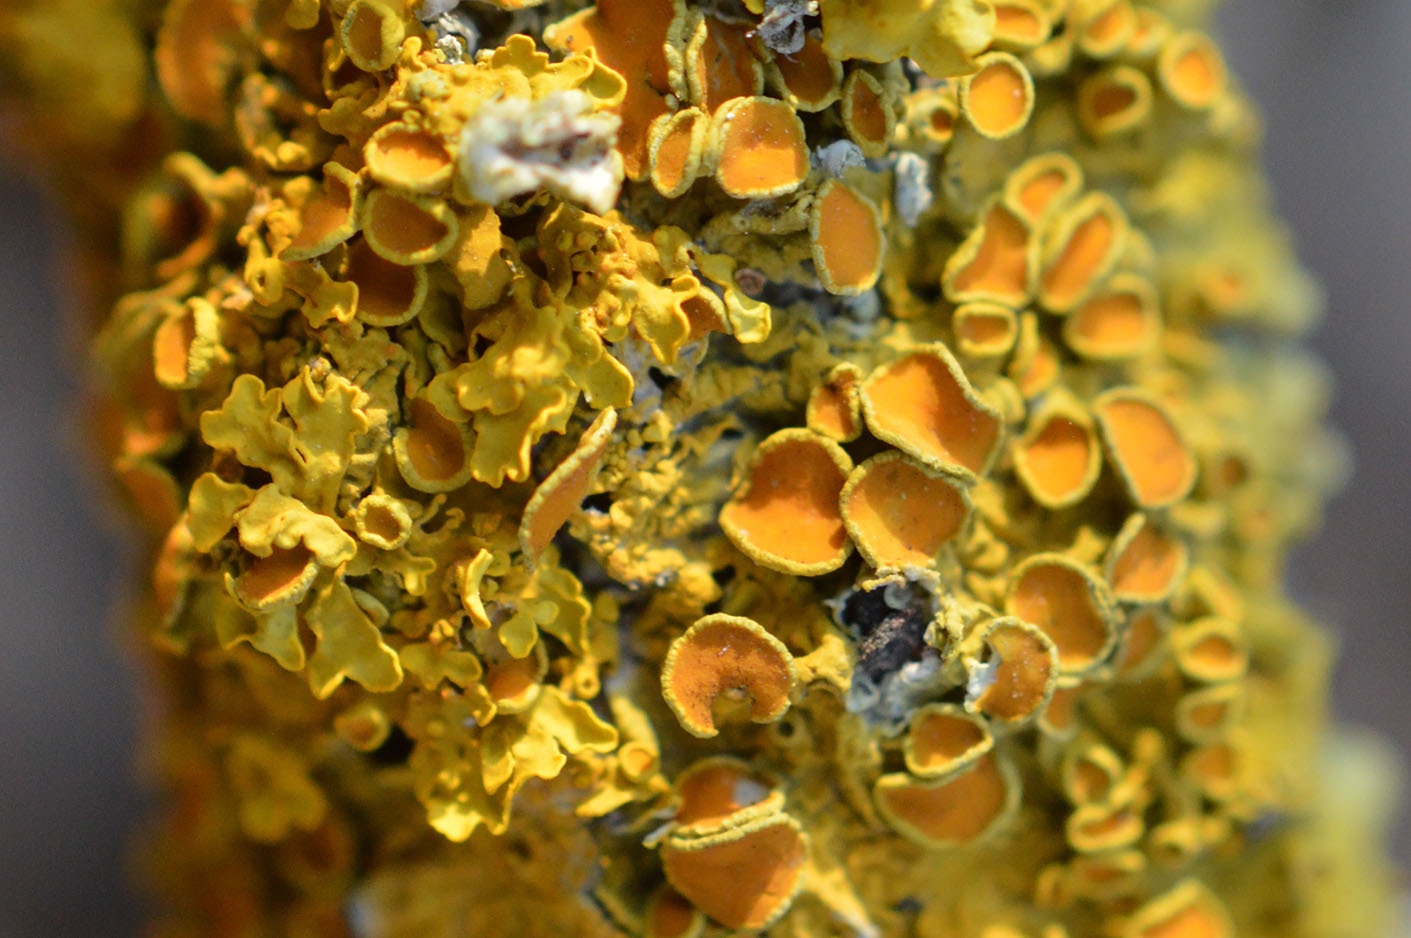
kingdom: Fungi
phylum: Ascomycota
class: Lecanoromycetes
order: Teloschistales
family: Teloschistaceae
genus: Xanthoria
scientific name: Xanthoria parietina
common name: Common orange lichen
